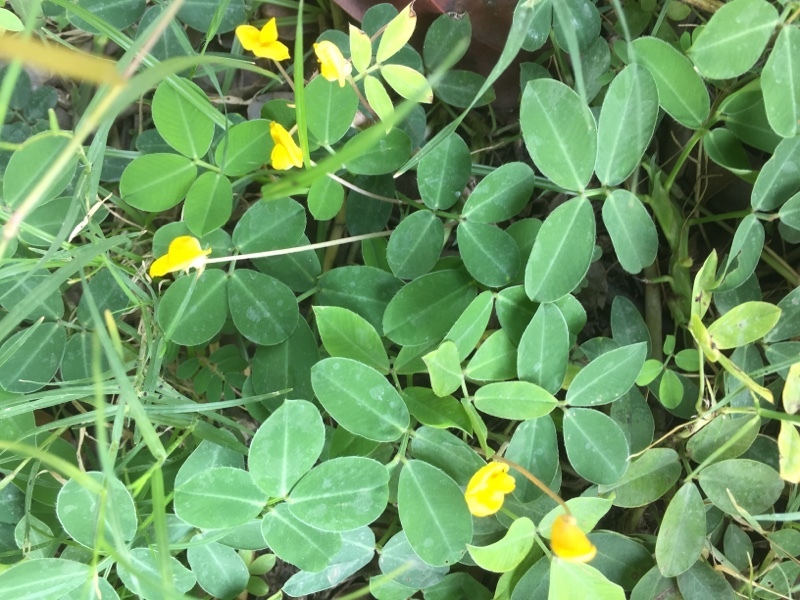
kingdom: Plantae
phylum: Tracheophyta
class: Magnoliopsida
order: Fabales
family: Fabaceae
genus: Arachis
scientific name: Arachis pintoi
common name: Pinto peanut
